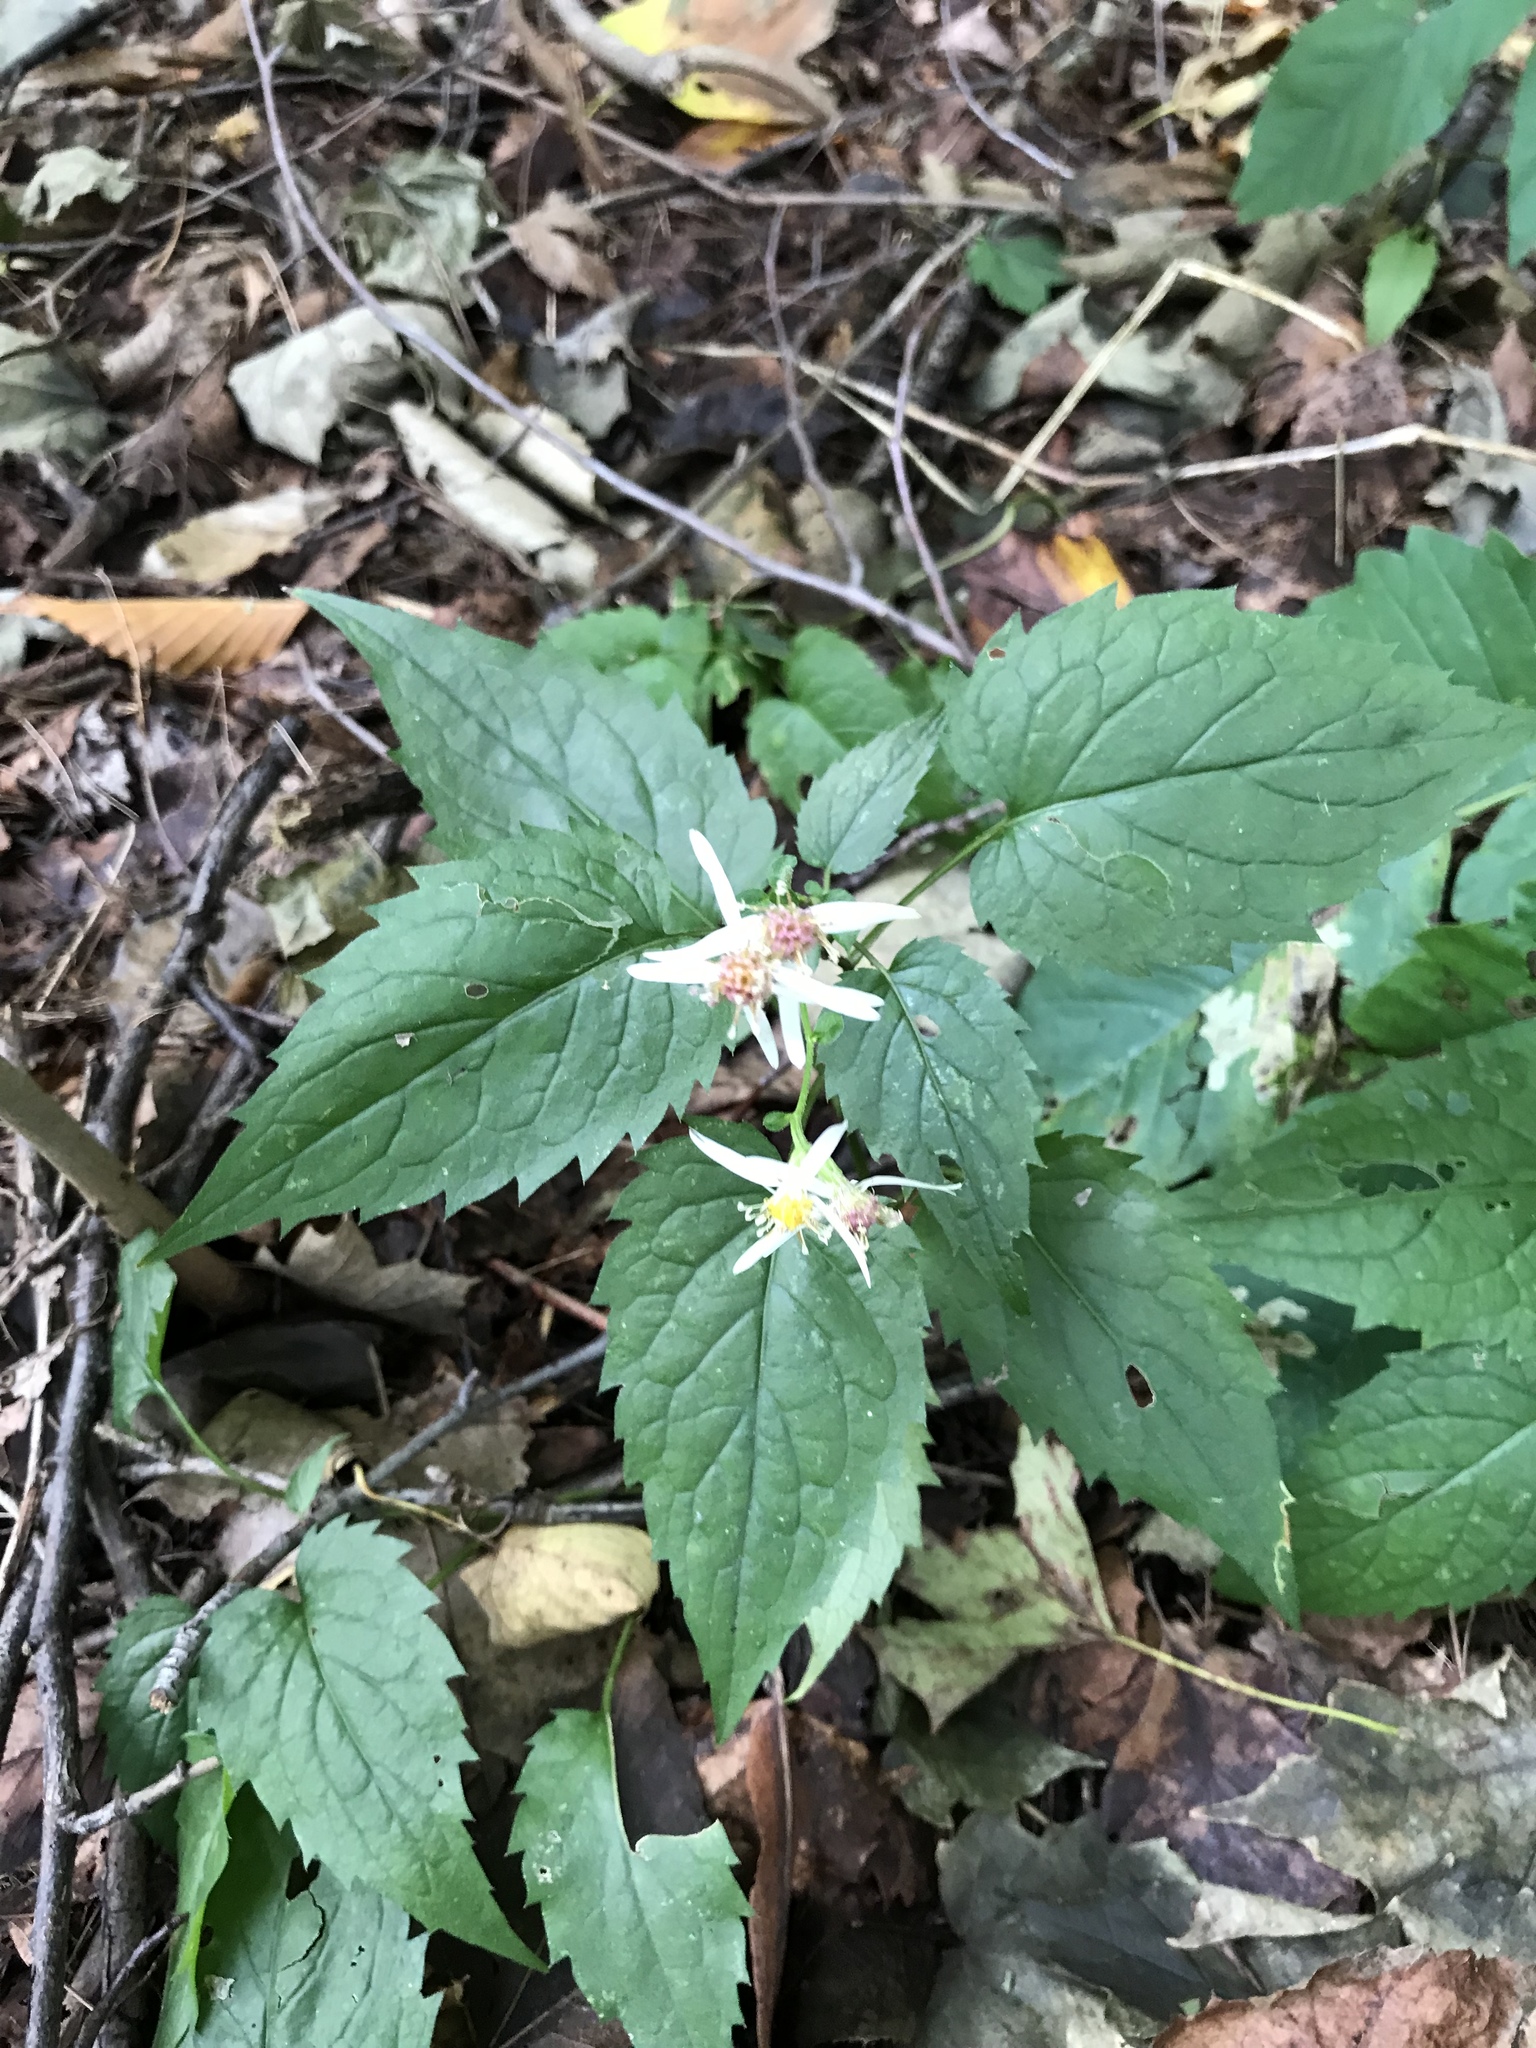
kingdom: Plantae
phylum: Tracheophyta
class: Magnoliopsida
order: Asterales
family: Asteraceae
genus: Eurybia
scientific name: Eurybia divaricata
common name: White wood aster
